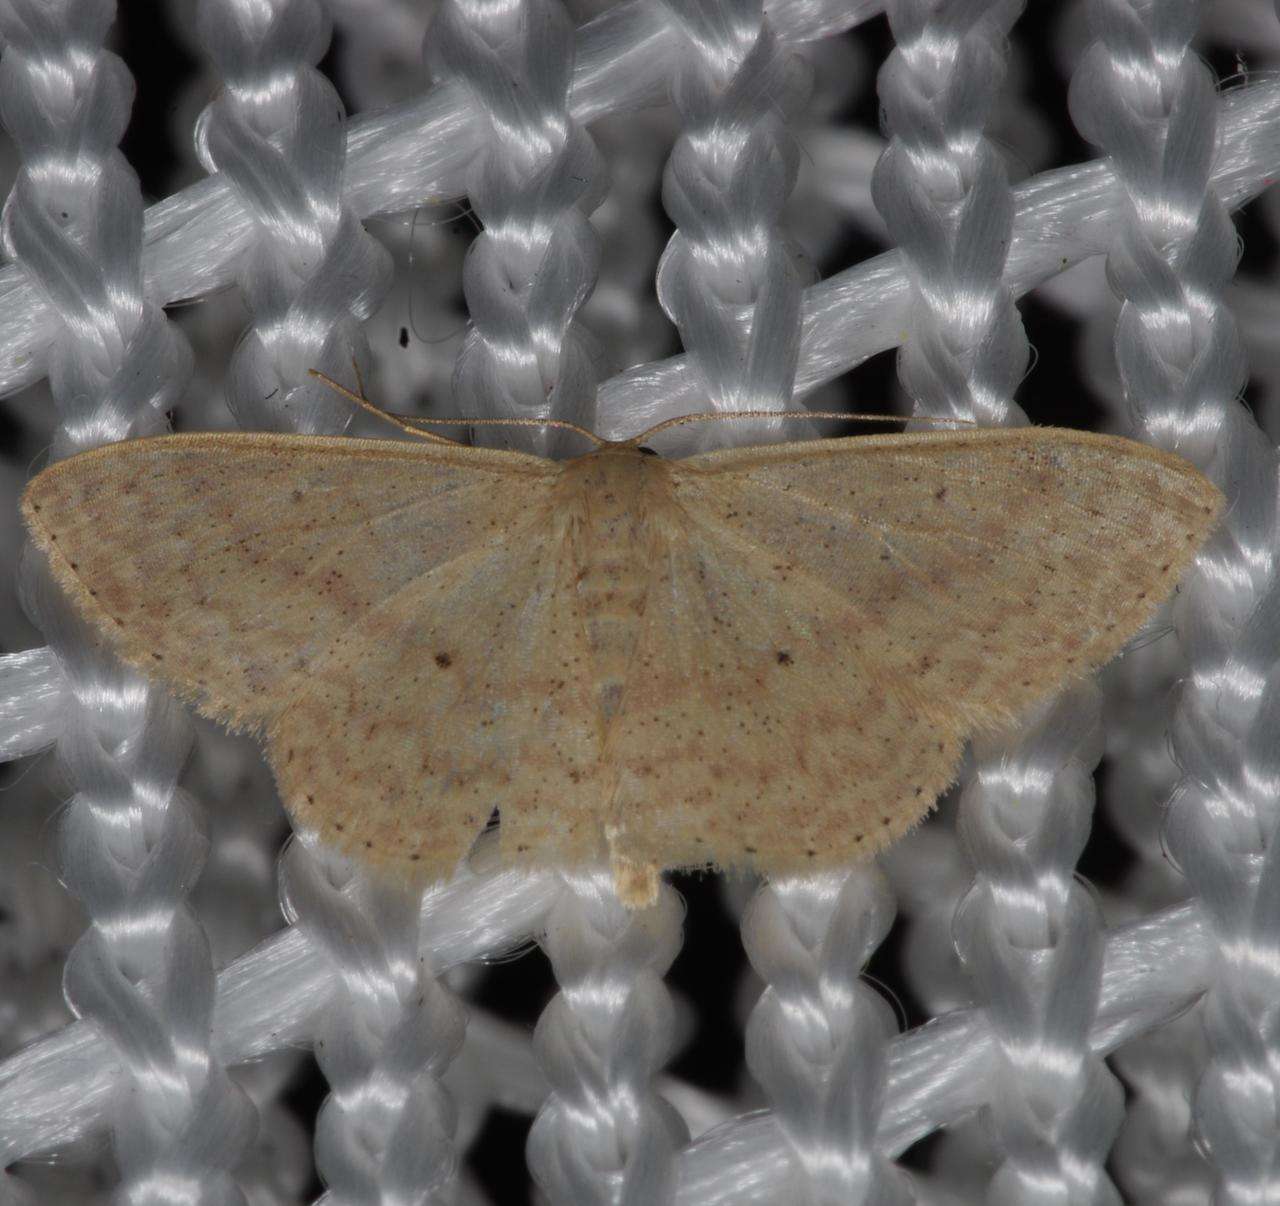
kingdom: Animalia
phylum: Arthropoda
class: Insecta
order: Lepidoptera
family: Geometridae
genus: Scopula
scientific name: Scopula optivata
